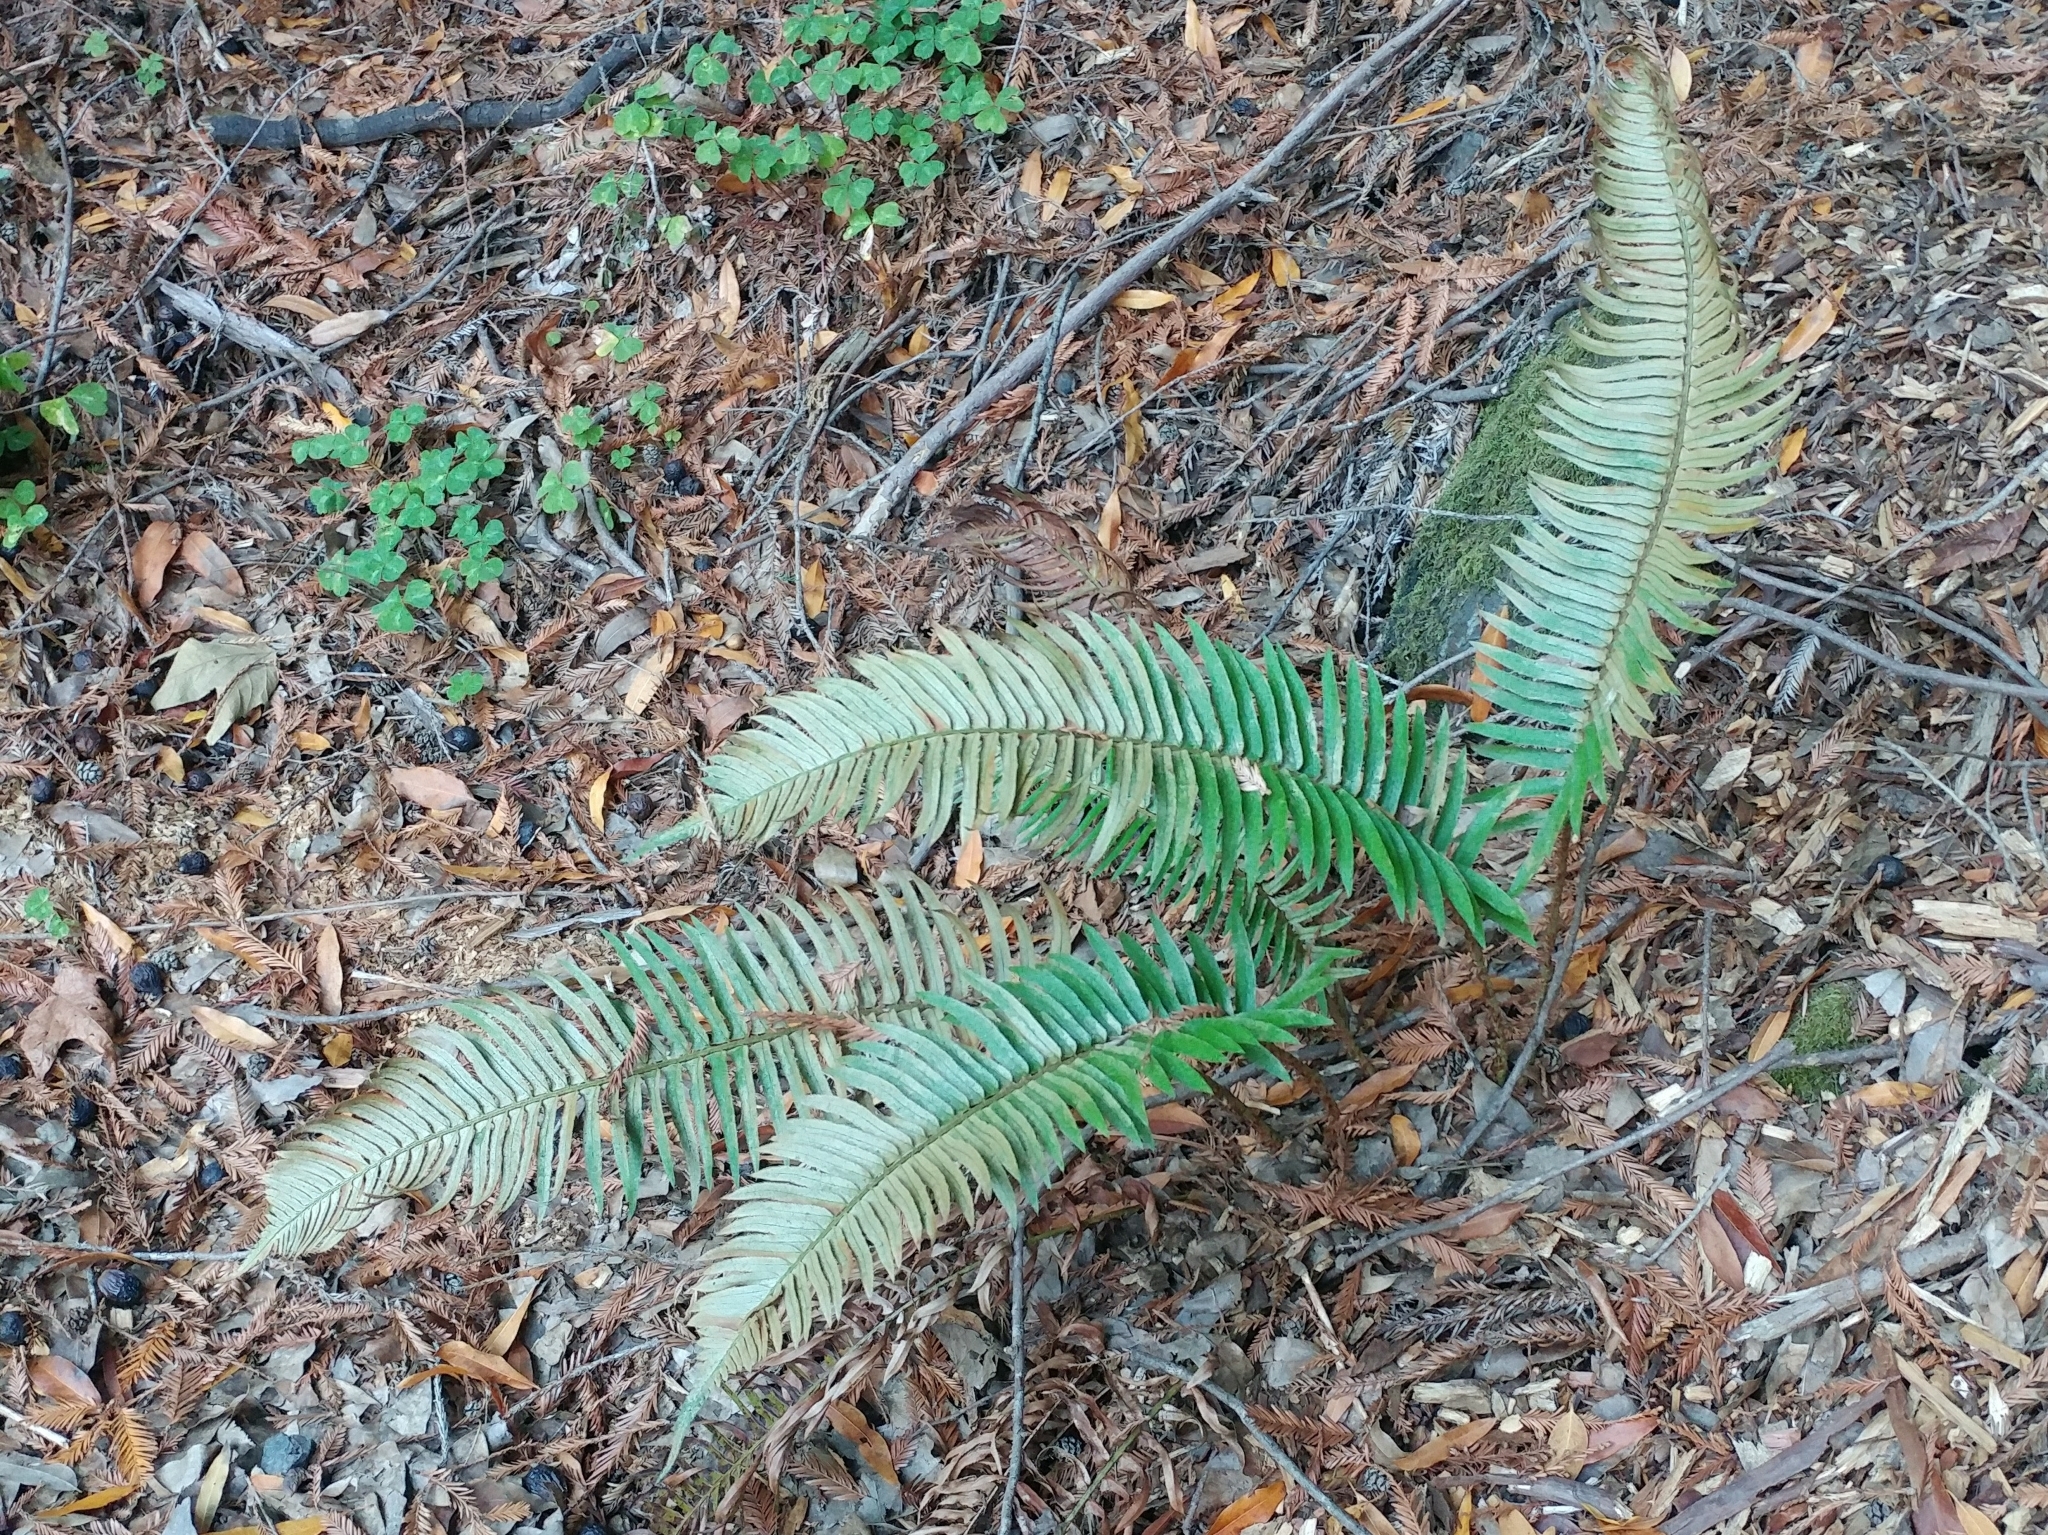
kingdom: Plantae
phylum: Tracheophyta
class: Polypodiopsida
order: Polypodiales
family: Dryopteridaceae
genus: Polystichum
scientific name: Polystichum munitum
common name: Western sword-fern
